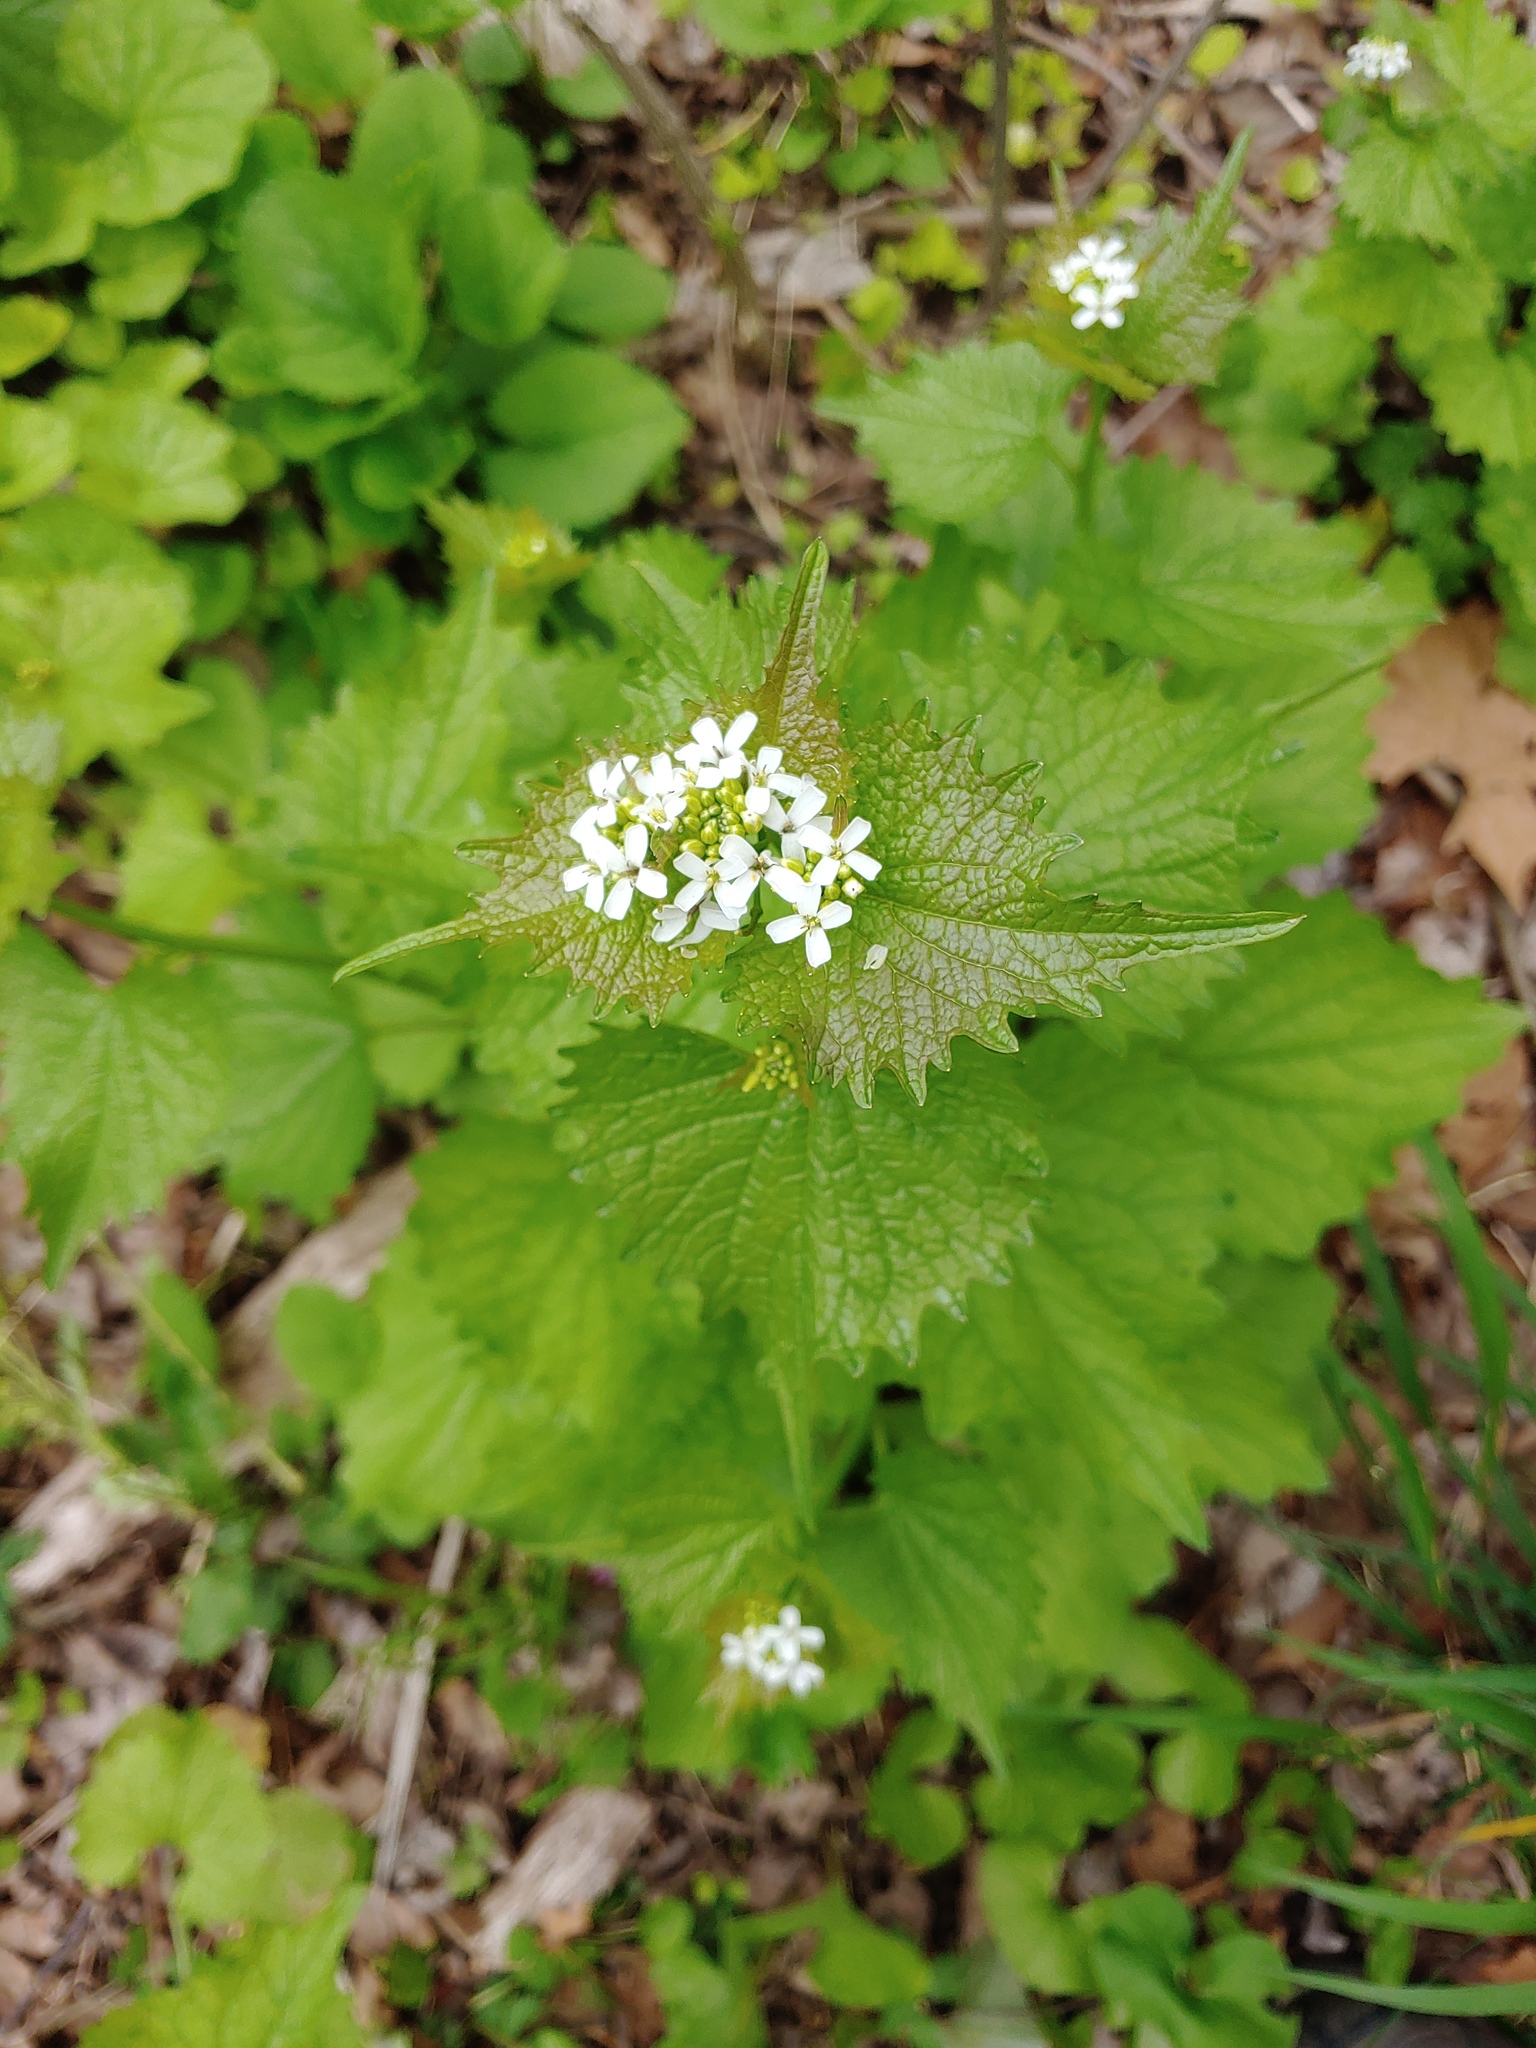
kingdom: Plantae
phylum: Tracheophyta
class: Magnoliopsida
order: Brassicales
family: Brassicaceae
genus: Alliaria
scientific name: Alliaria petiolata
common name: Garlic mustard
